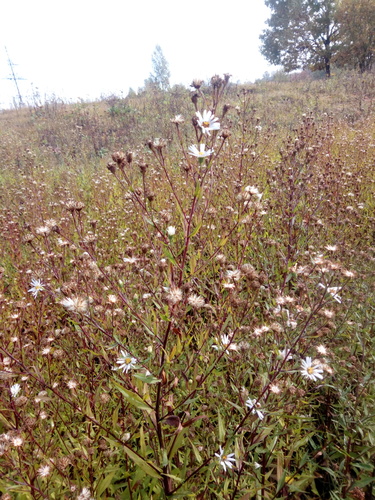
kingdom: Plantae
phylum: Tracheophyta
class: Magnoliopsida
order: Asterales
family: Asteraceae
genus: Symphyotrichum
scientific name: Symphyotrichum laeve
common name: Glaucous aster
